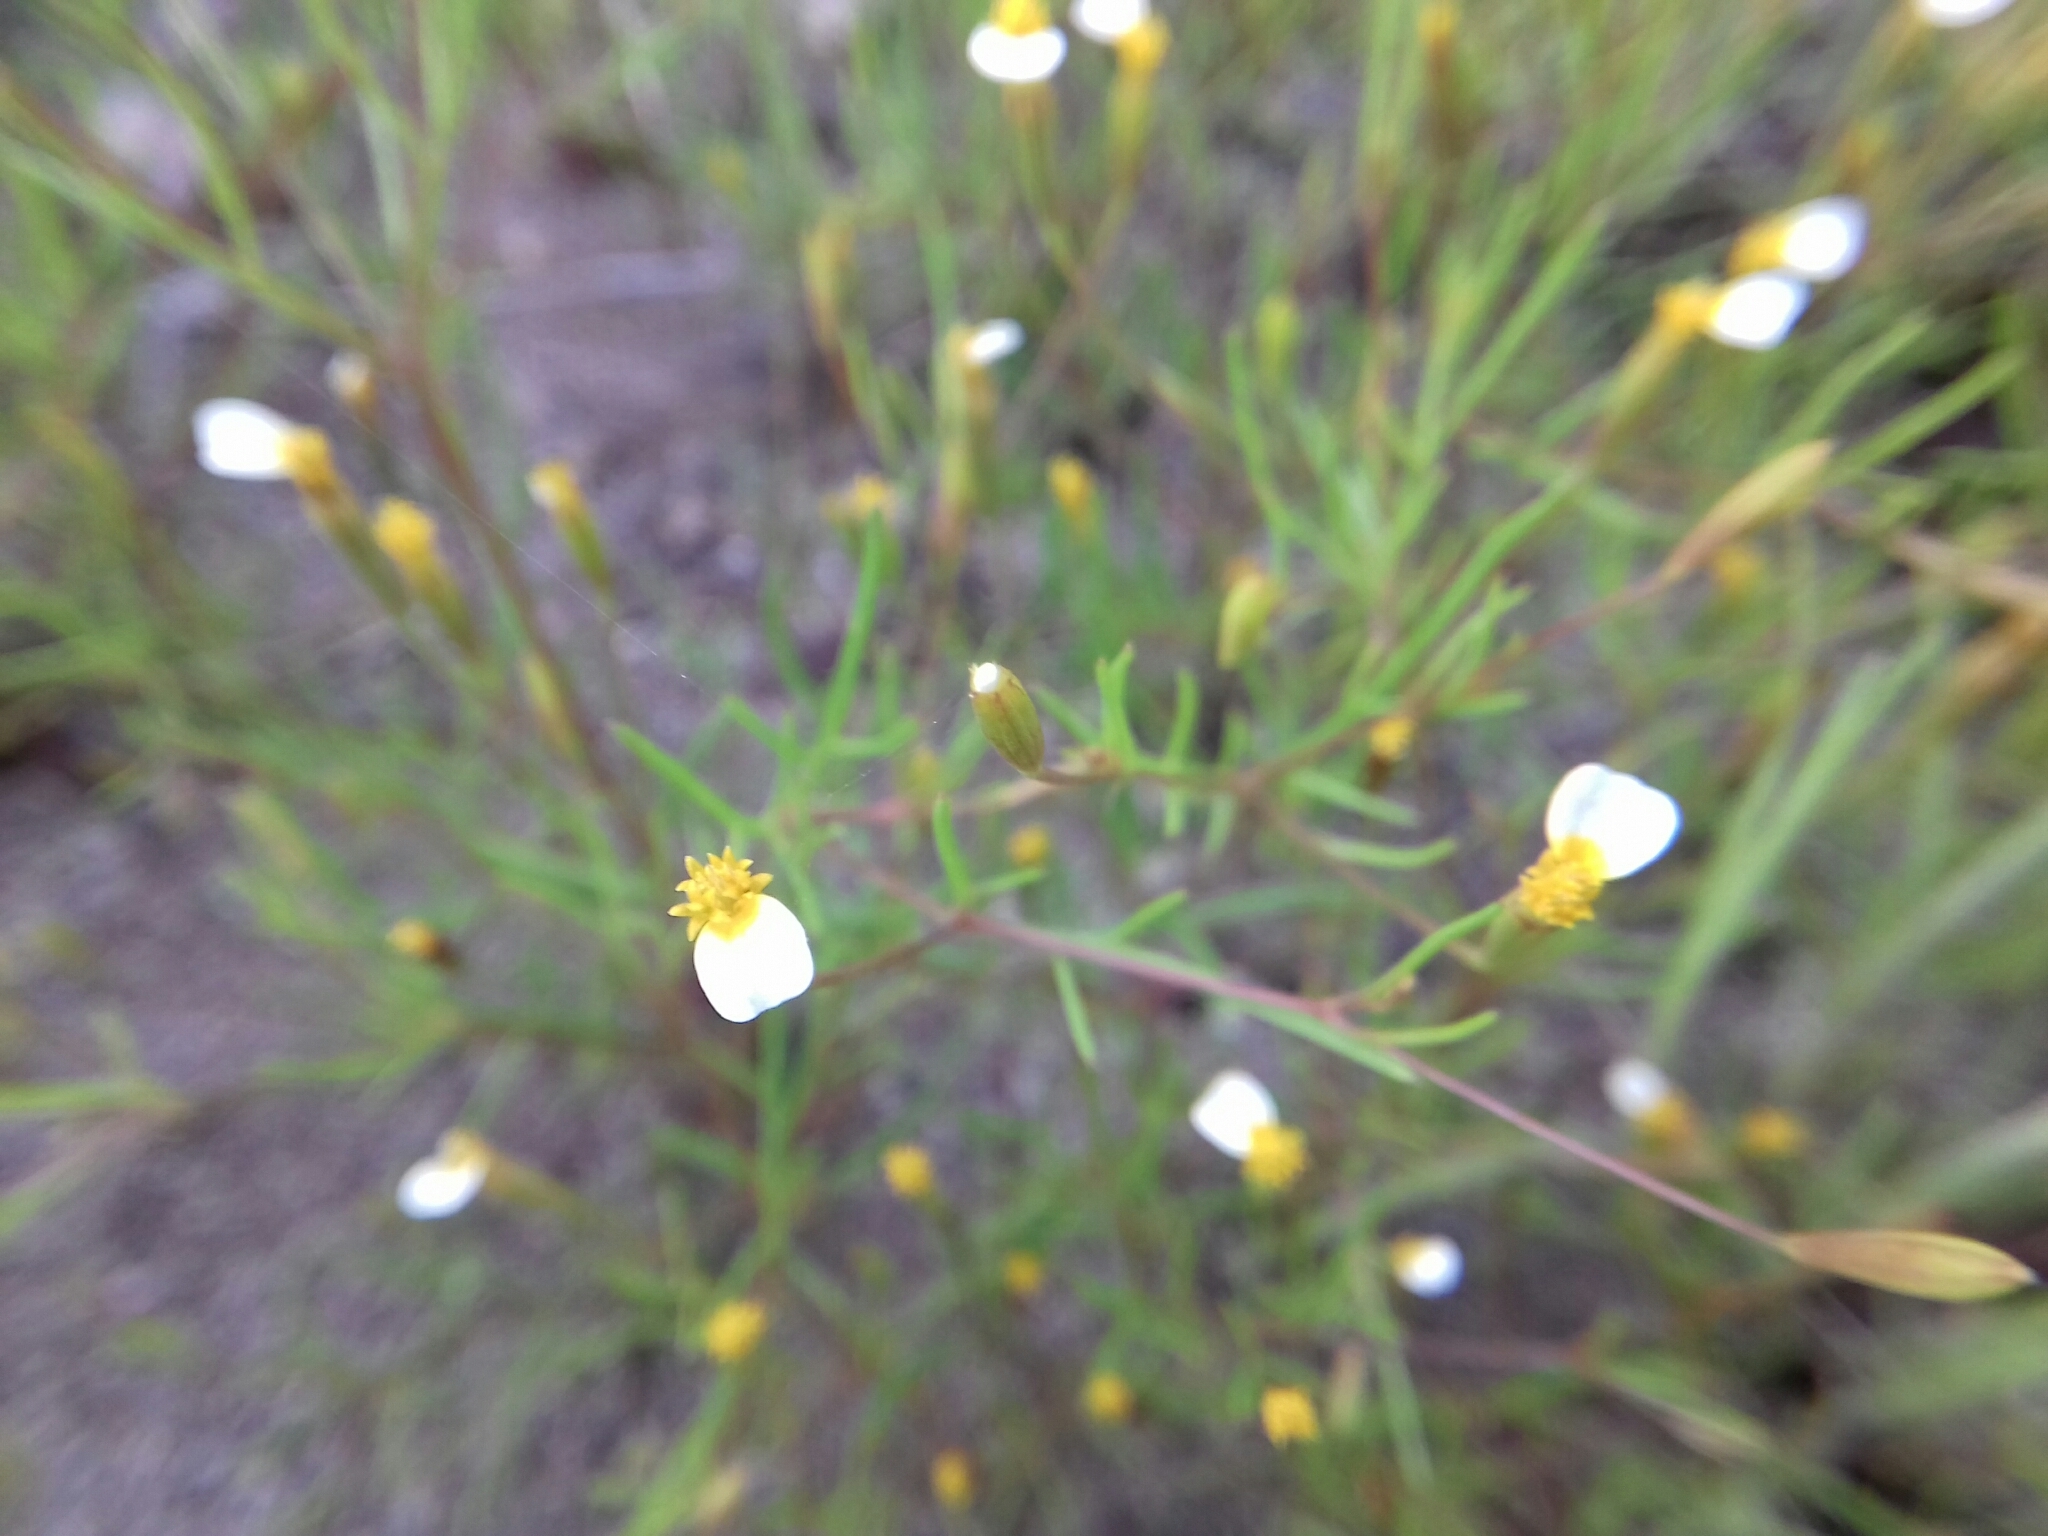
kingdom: Plantae
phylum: Tracheophyta
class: Magnoliopsida
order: Asterales
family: Asteraceae
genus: Tagetes
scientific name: Tagetes micrantha
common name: Licorice marigold
